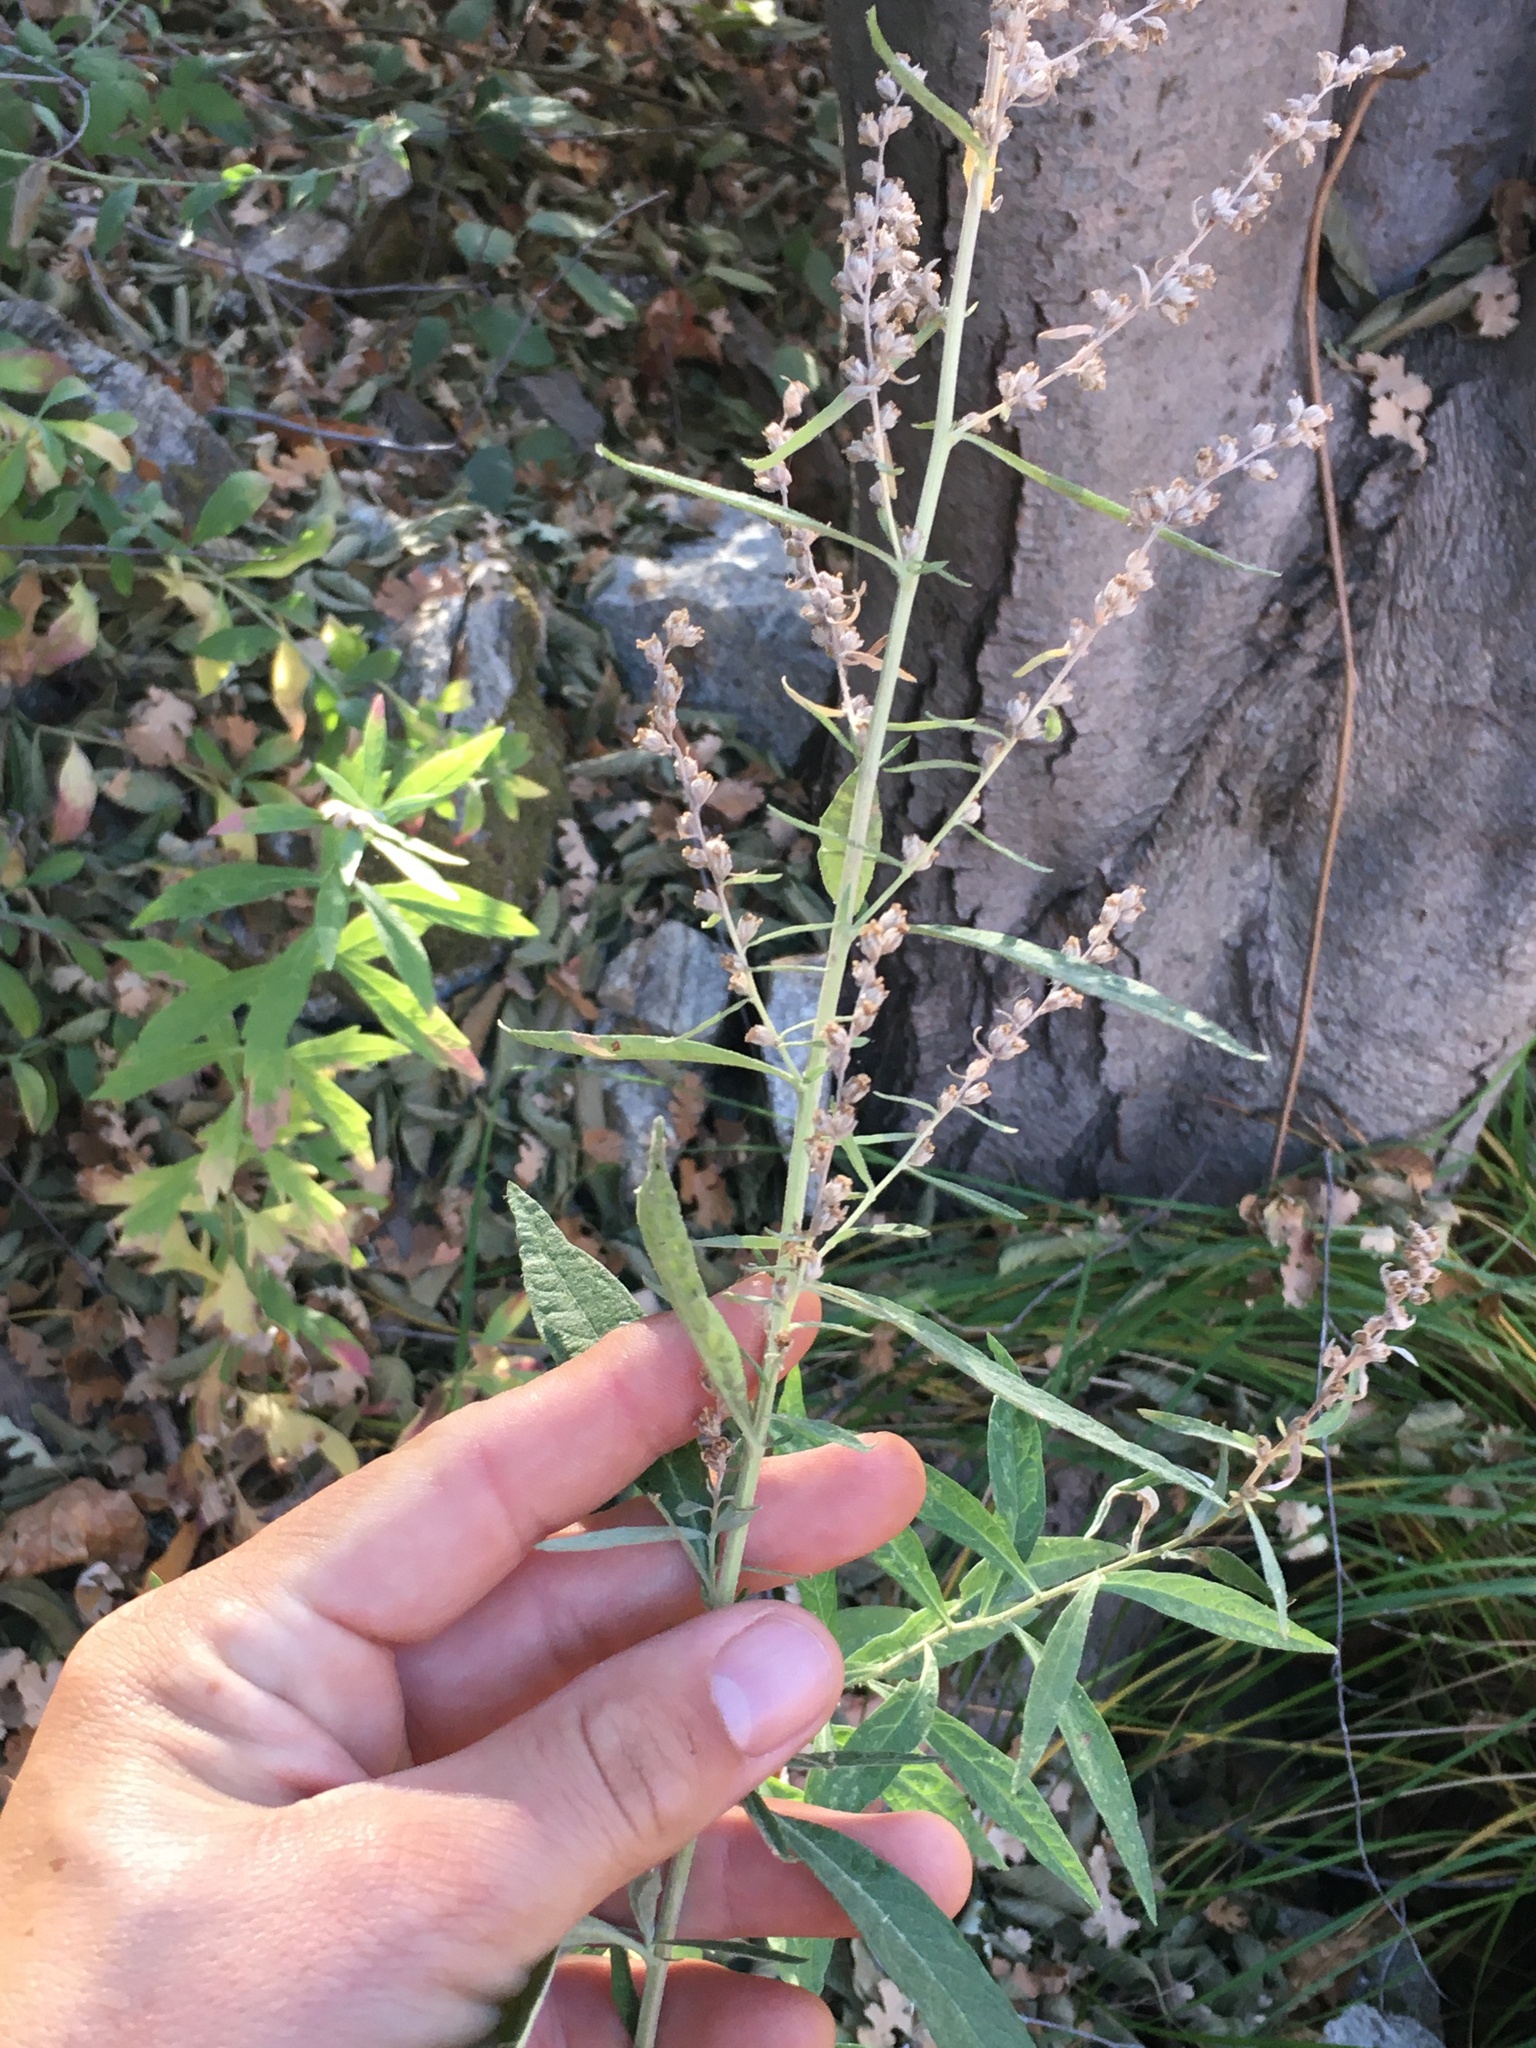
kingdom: Plantae
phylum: Tracheophyta
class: Magnoliopsida
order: Asterales
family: Asteraceae
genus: Artemisia
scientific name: Artemisia douglasiana
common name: Northwest mugwort
